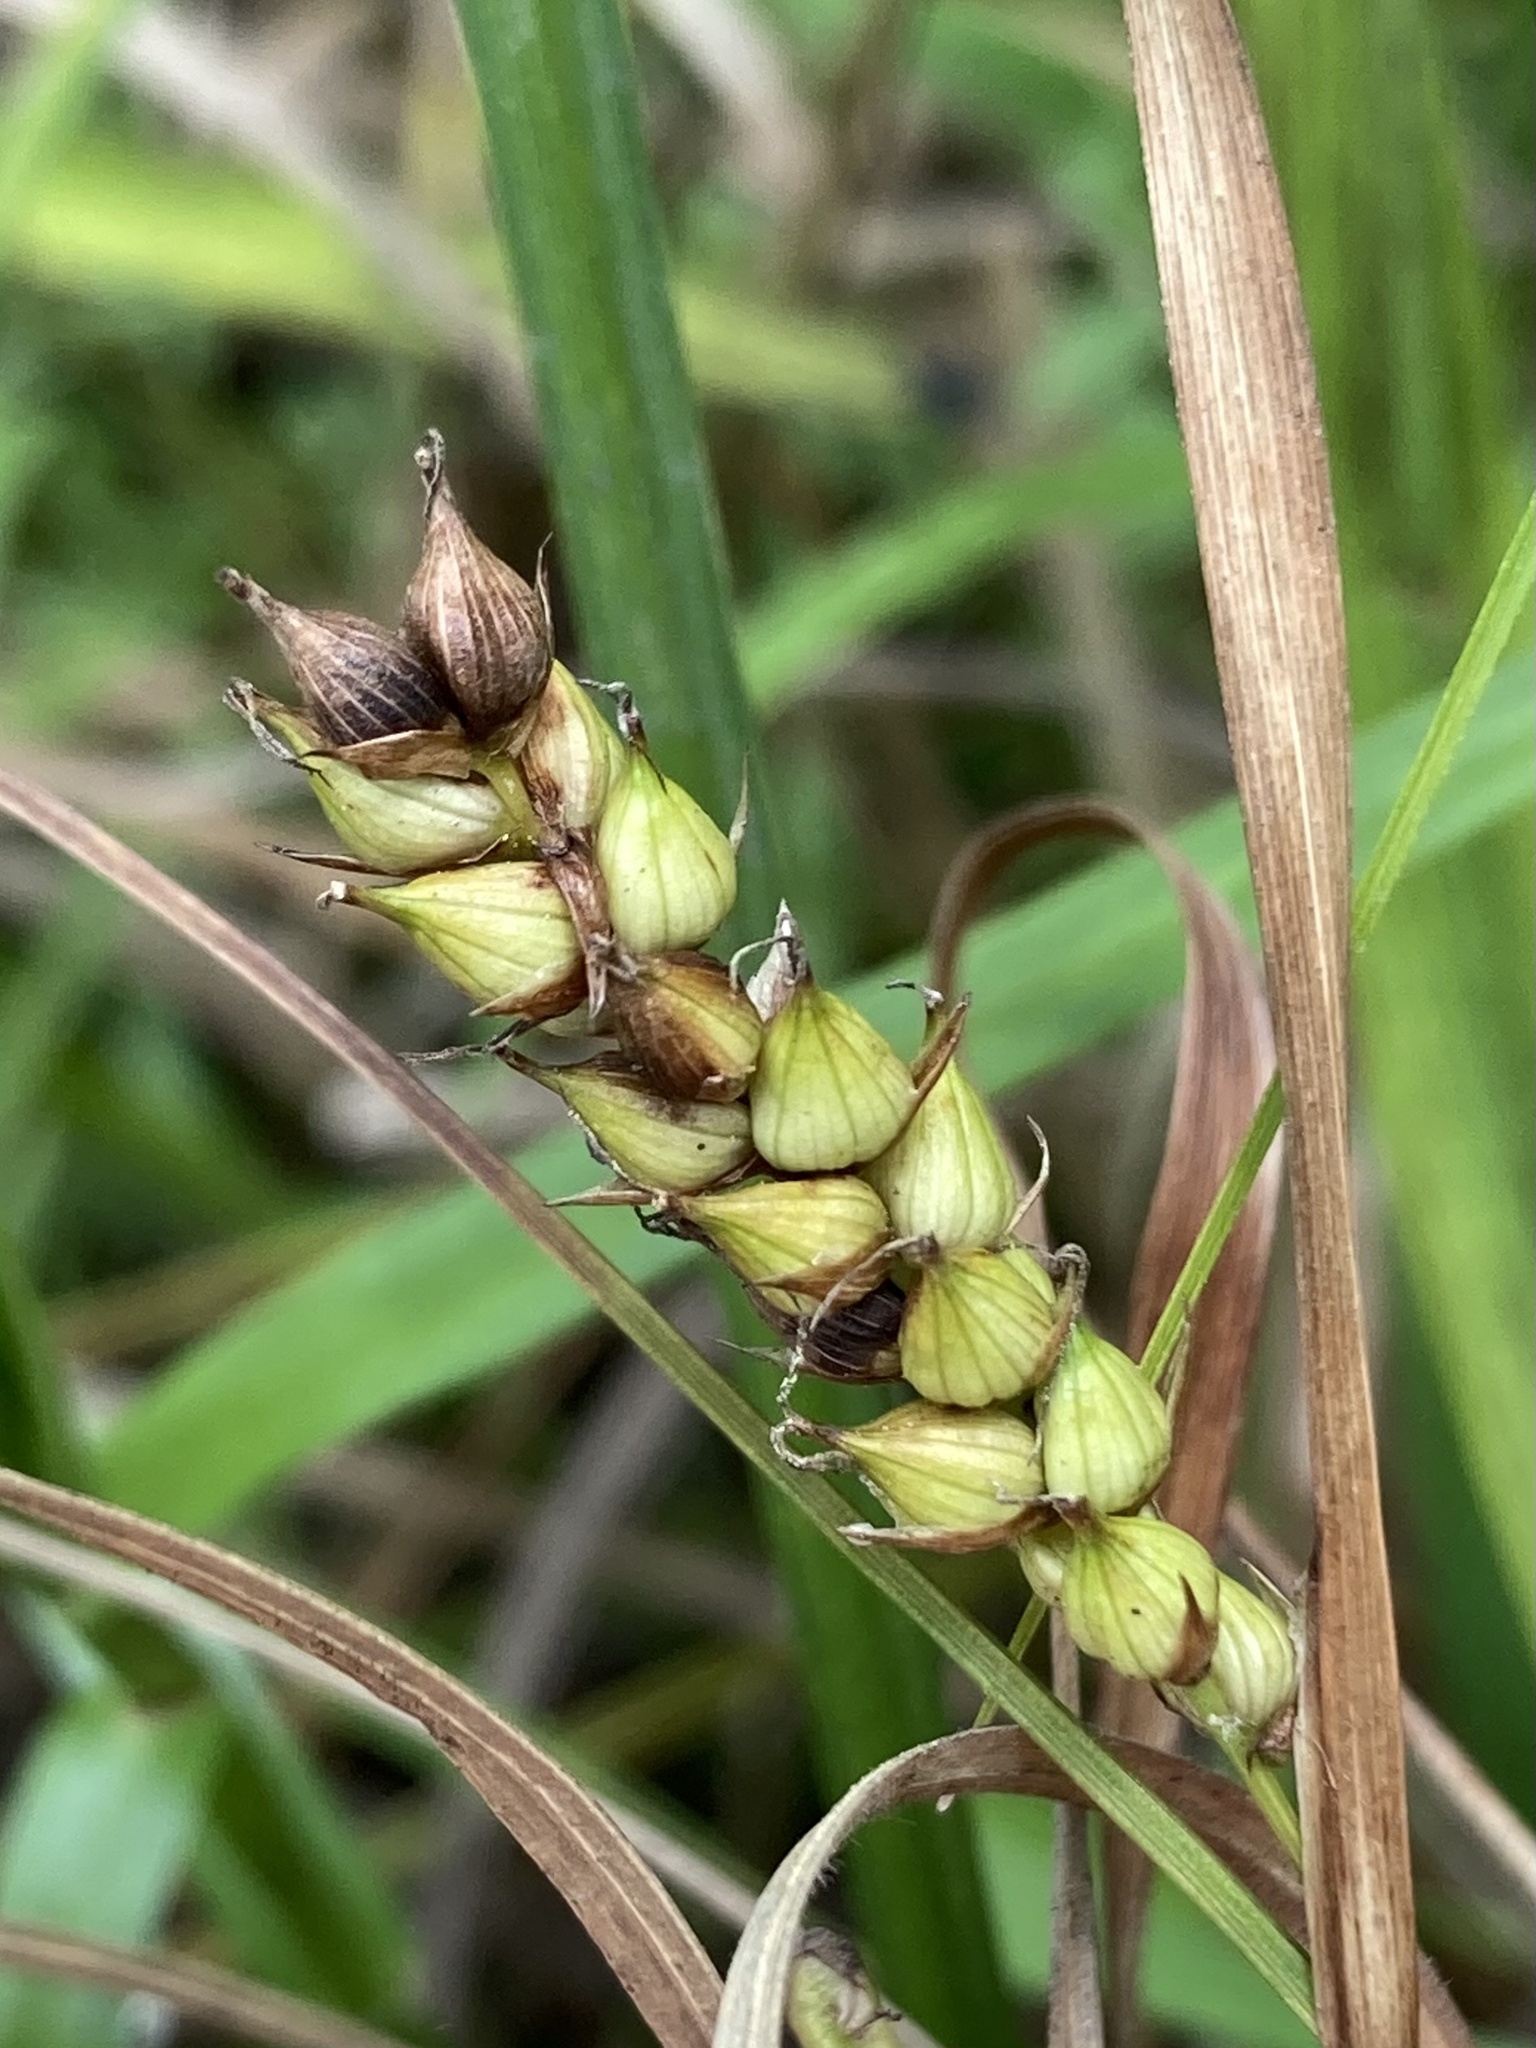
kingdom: Plantae
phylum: Tracheophyta
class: Liliopsida
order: Poales
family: Cyperaceae
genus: Carex
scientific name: Carex striata
